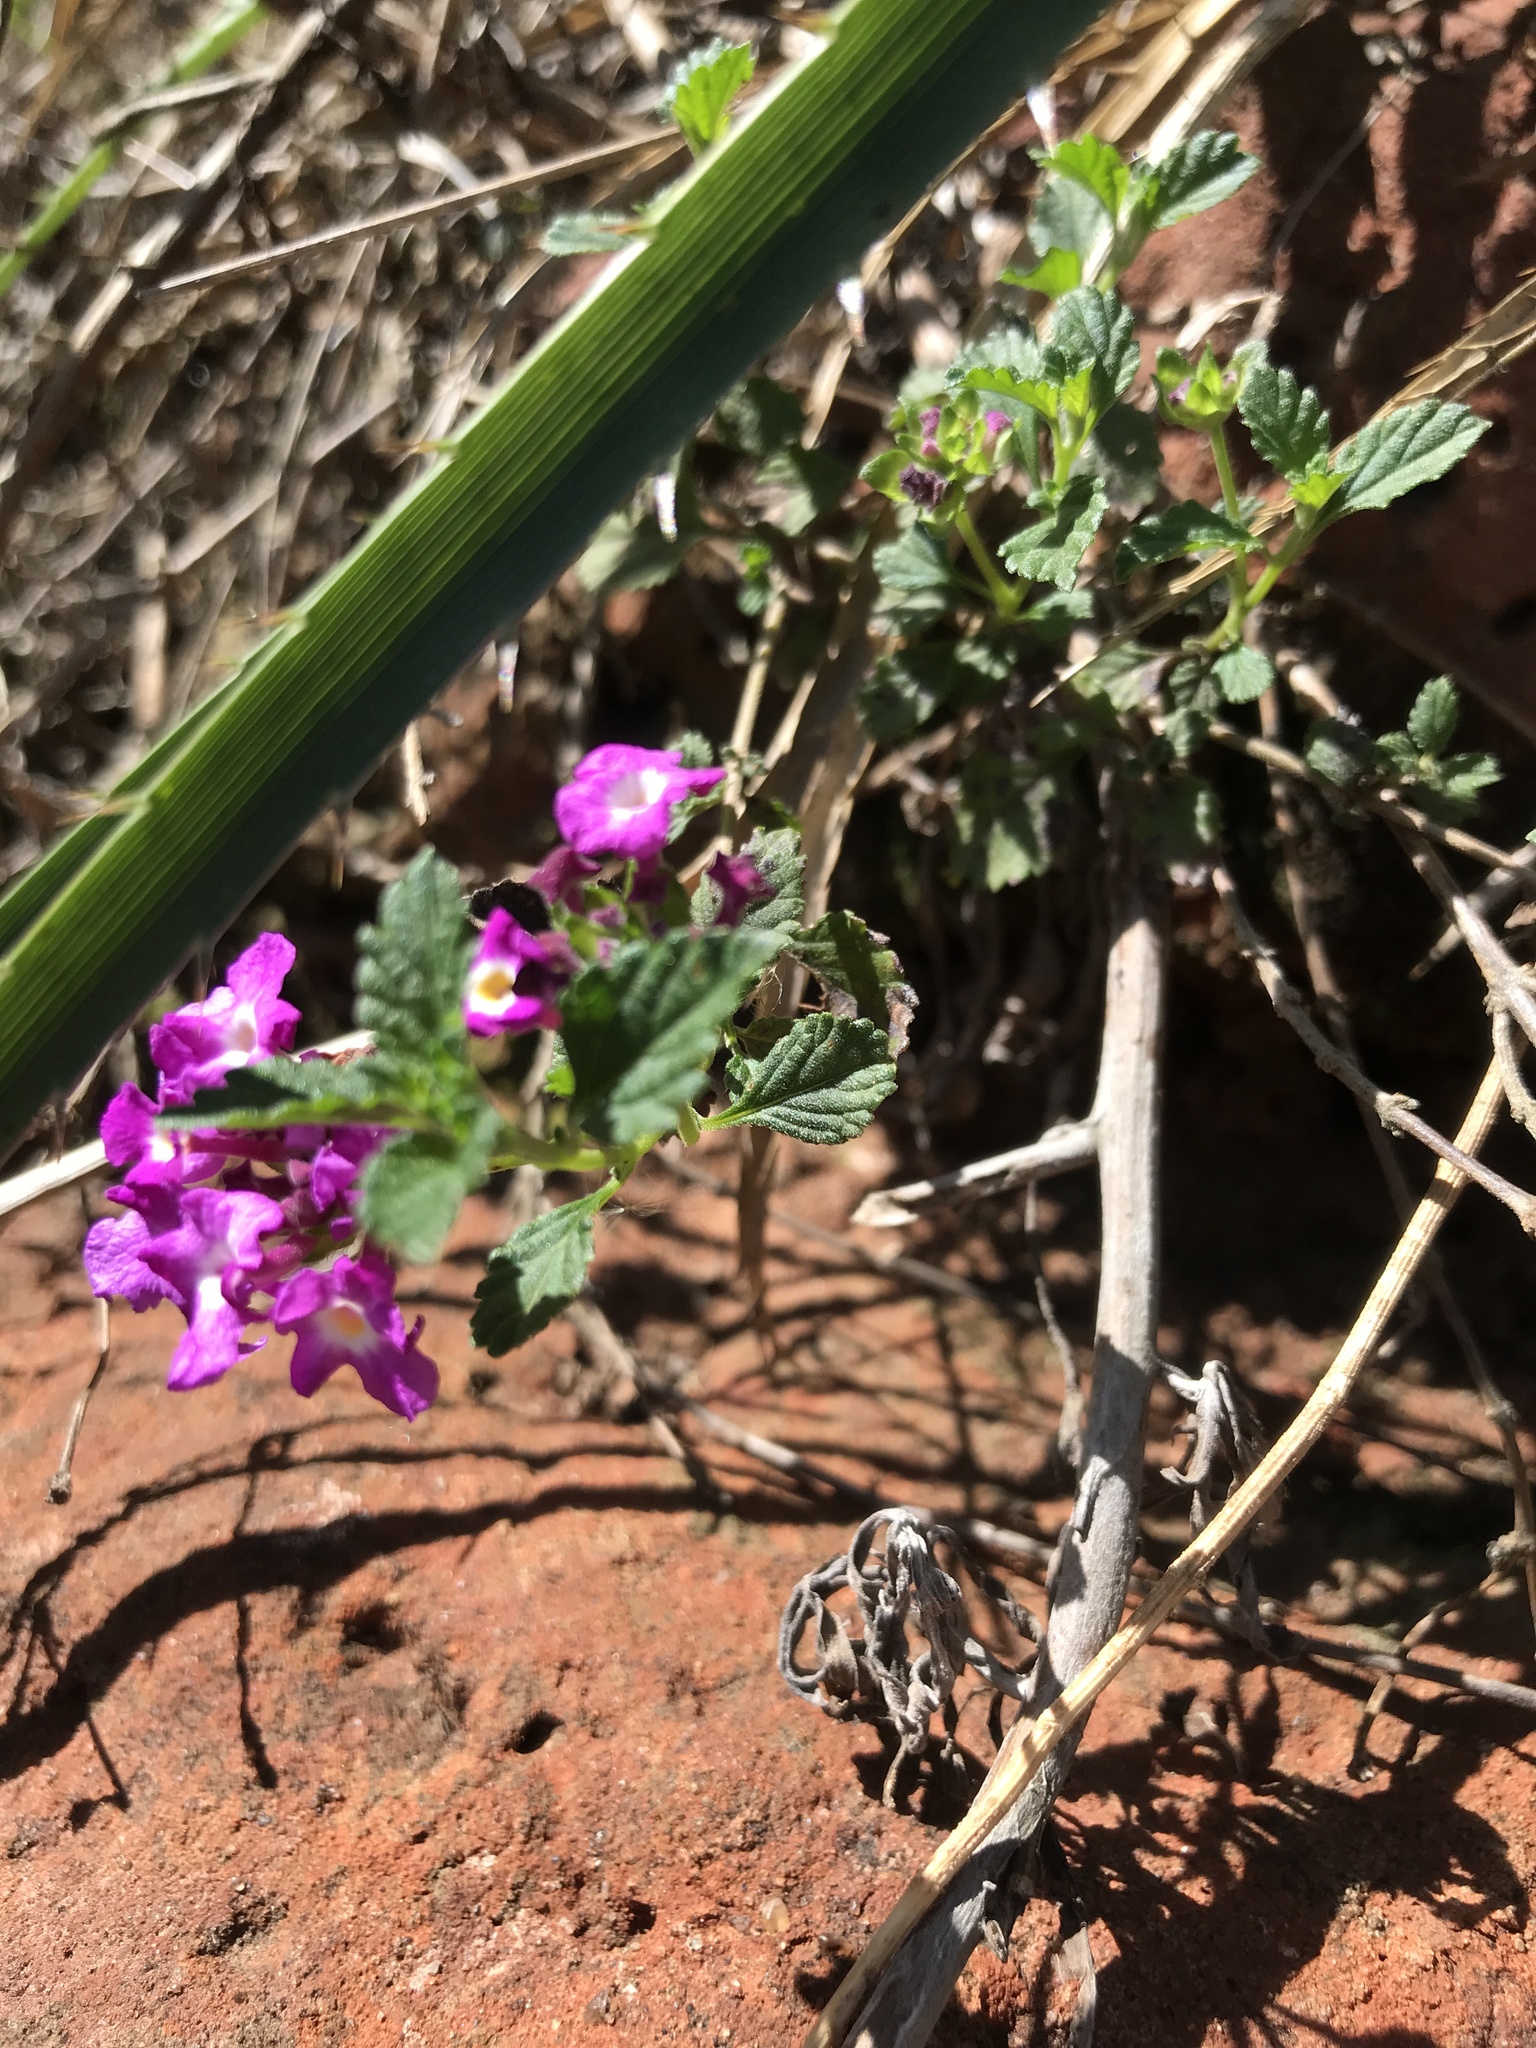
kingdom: Plantae
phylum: Tracheophyta
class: Magnoliopsida
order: Lamiales
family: Verbenaceae
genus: Lantana
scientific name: Lantana montevidensis
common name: Trailing shrubverbena
